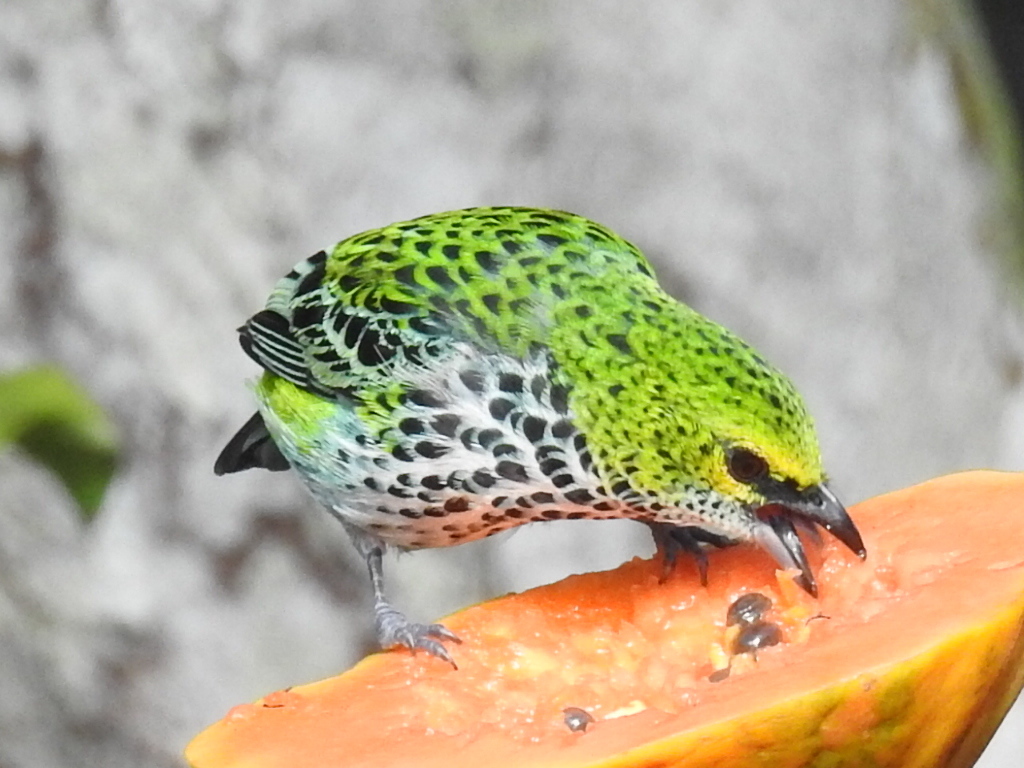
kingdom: Animalia
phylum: Chordata
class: Aves
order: Passeriformes
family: Thraupidae
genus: Ixothraupis
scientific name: Ixothraupis guttata
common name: Speckled tanager
